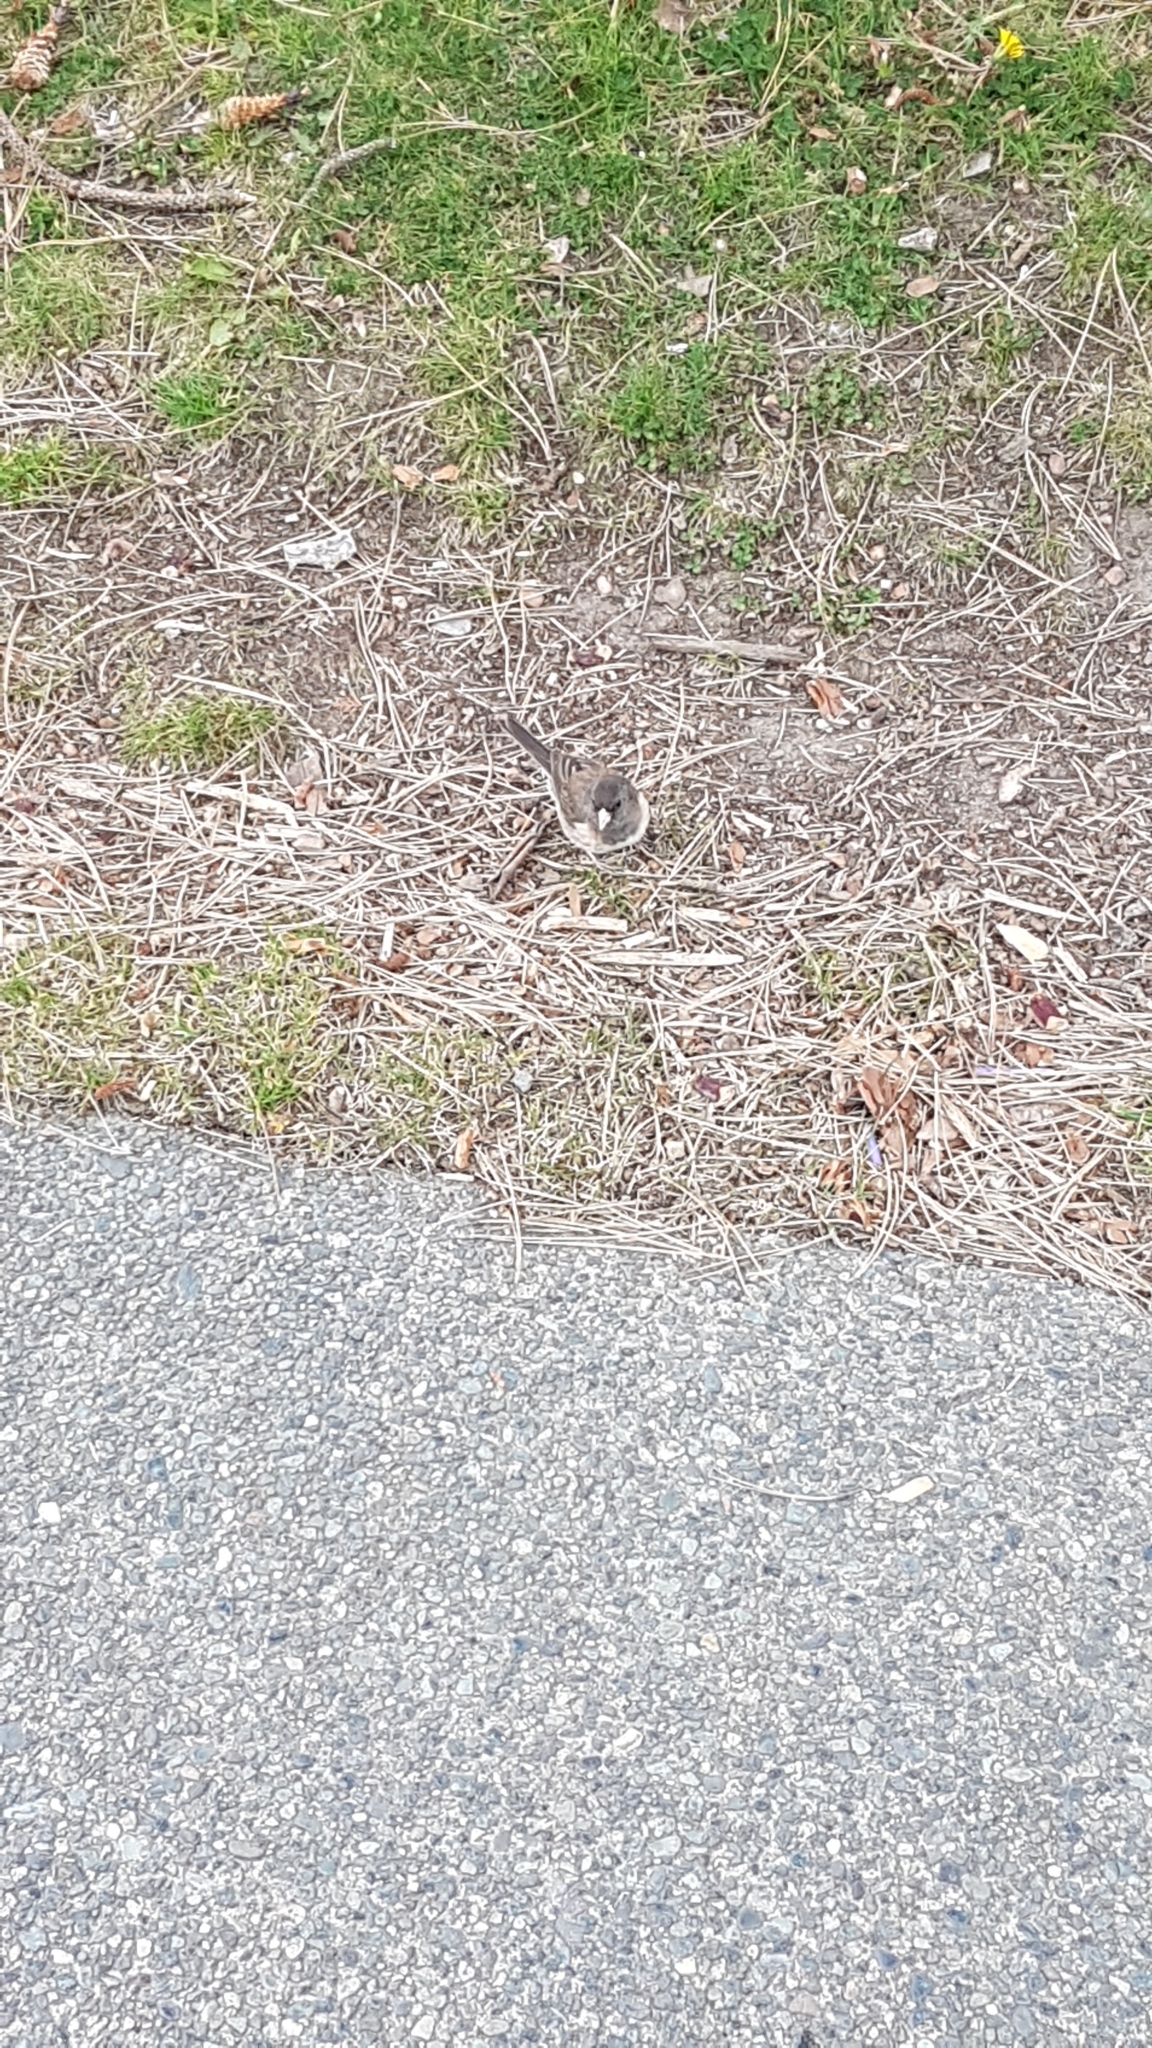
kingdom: Animalia
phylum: Chordata
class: Aves
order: Passeriformes
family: Passerellidae
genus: Junco
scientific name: Junco hyemalis
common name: Dark-eyed junco
